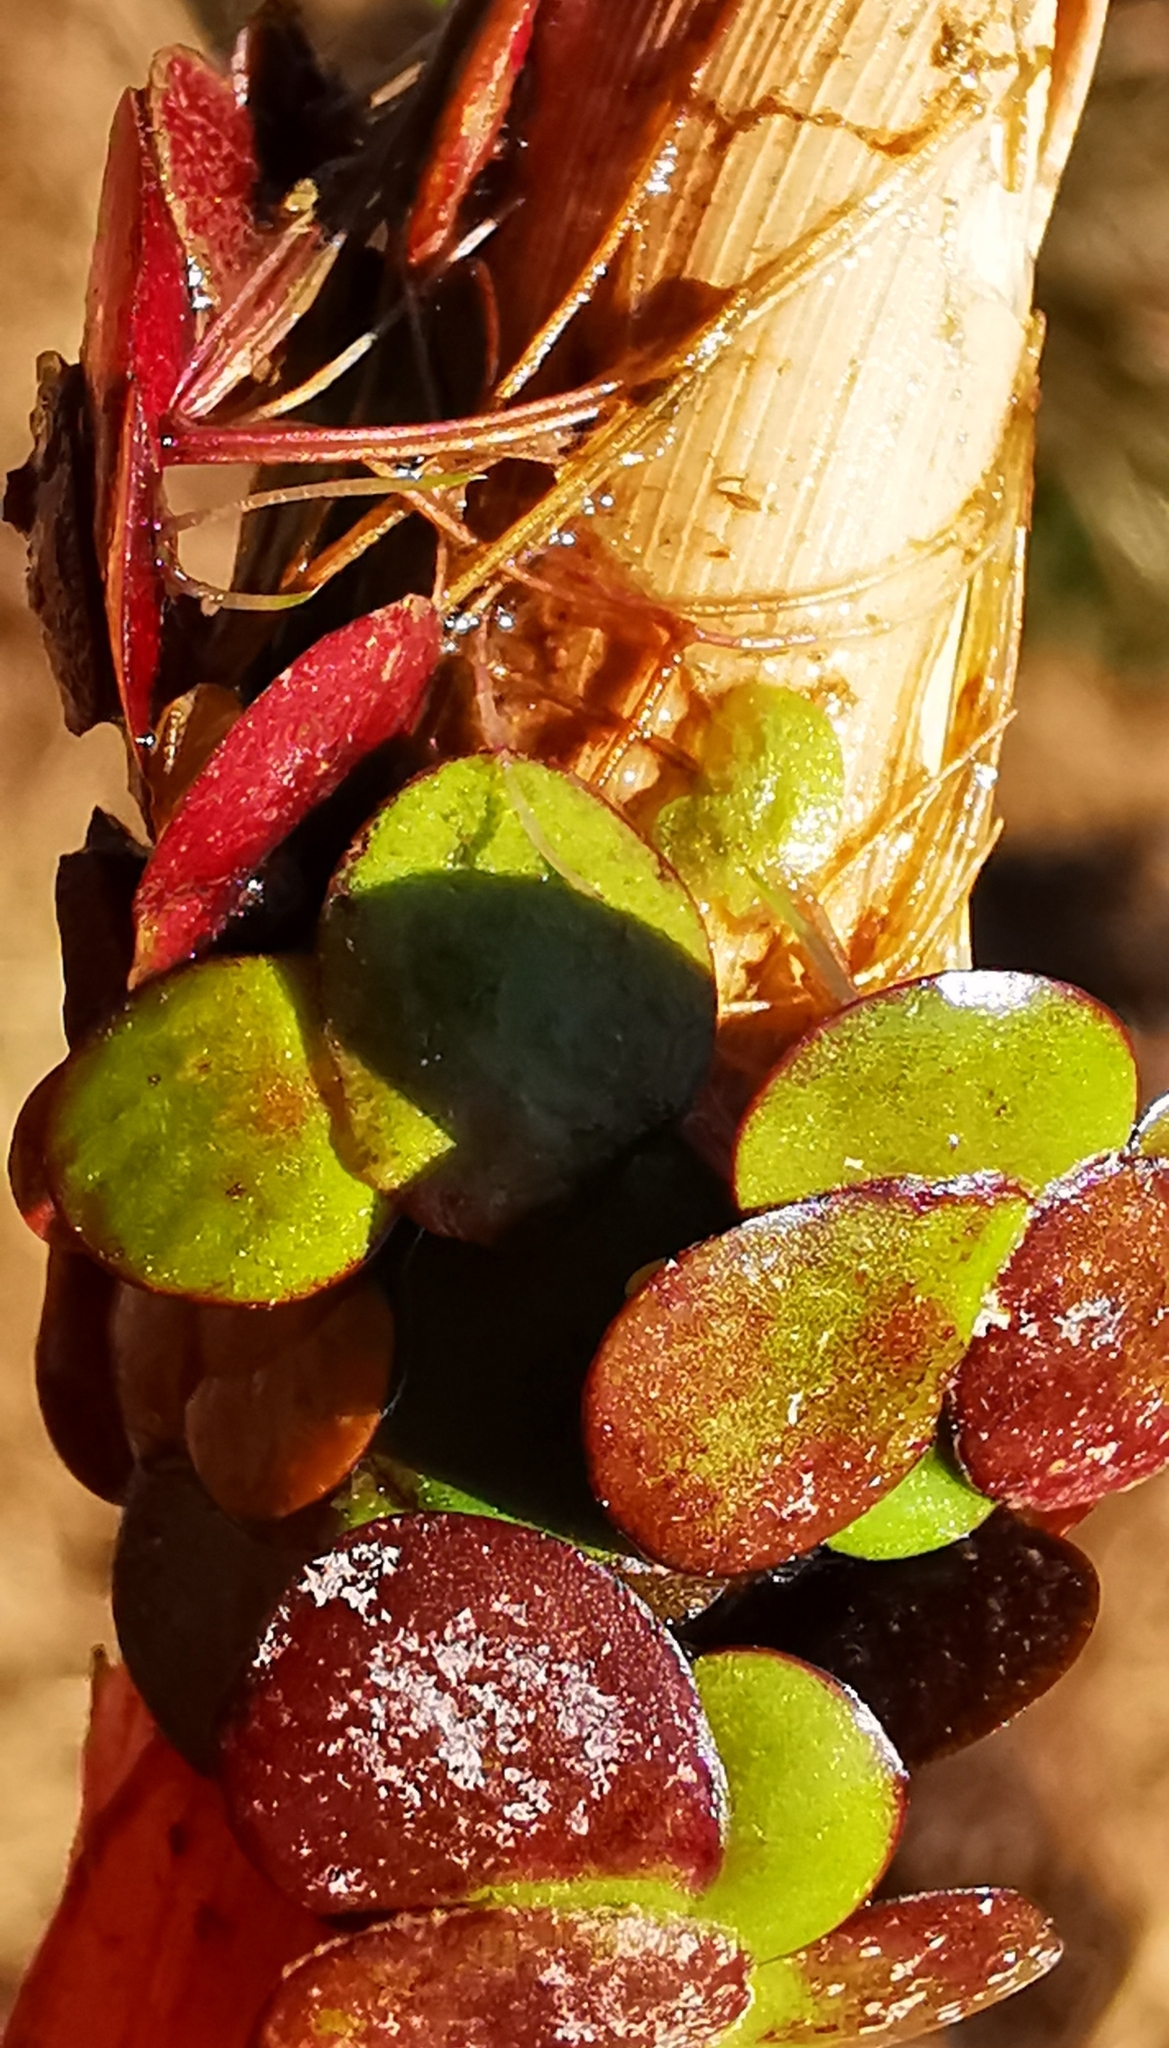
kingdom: Plantae
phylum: Tracheophyta
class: Liliopsida
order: Alismatales
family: Araceae
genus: Spirodela
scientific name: Spirodela polyrhiza
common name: Great duckweed
